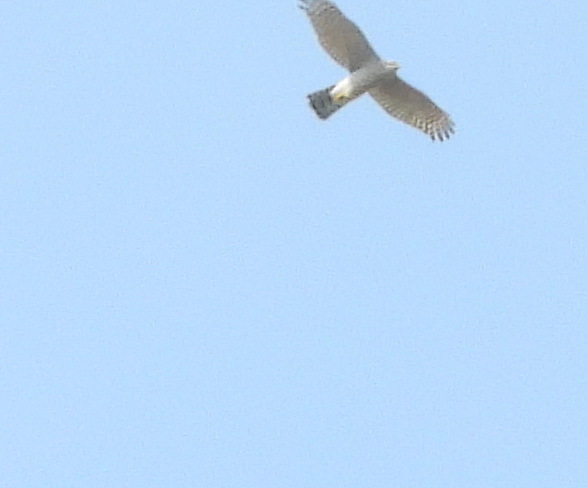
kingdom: Animalia
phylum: Chordata
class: Aves
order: Accipitriformes
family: Accipitridae
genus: Accipiter
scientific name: Accipiter nisus
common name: Eurasian sparrowhawk
